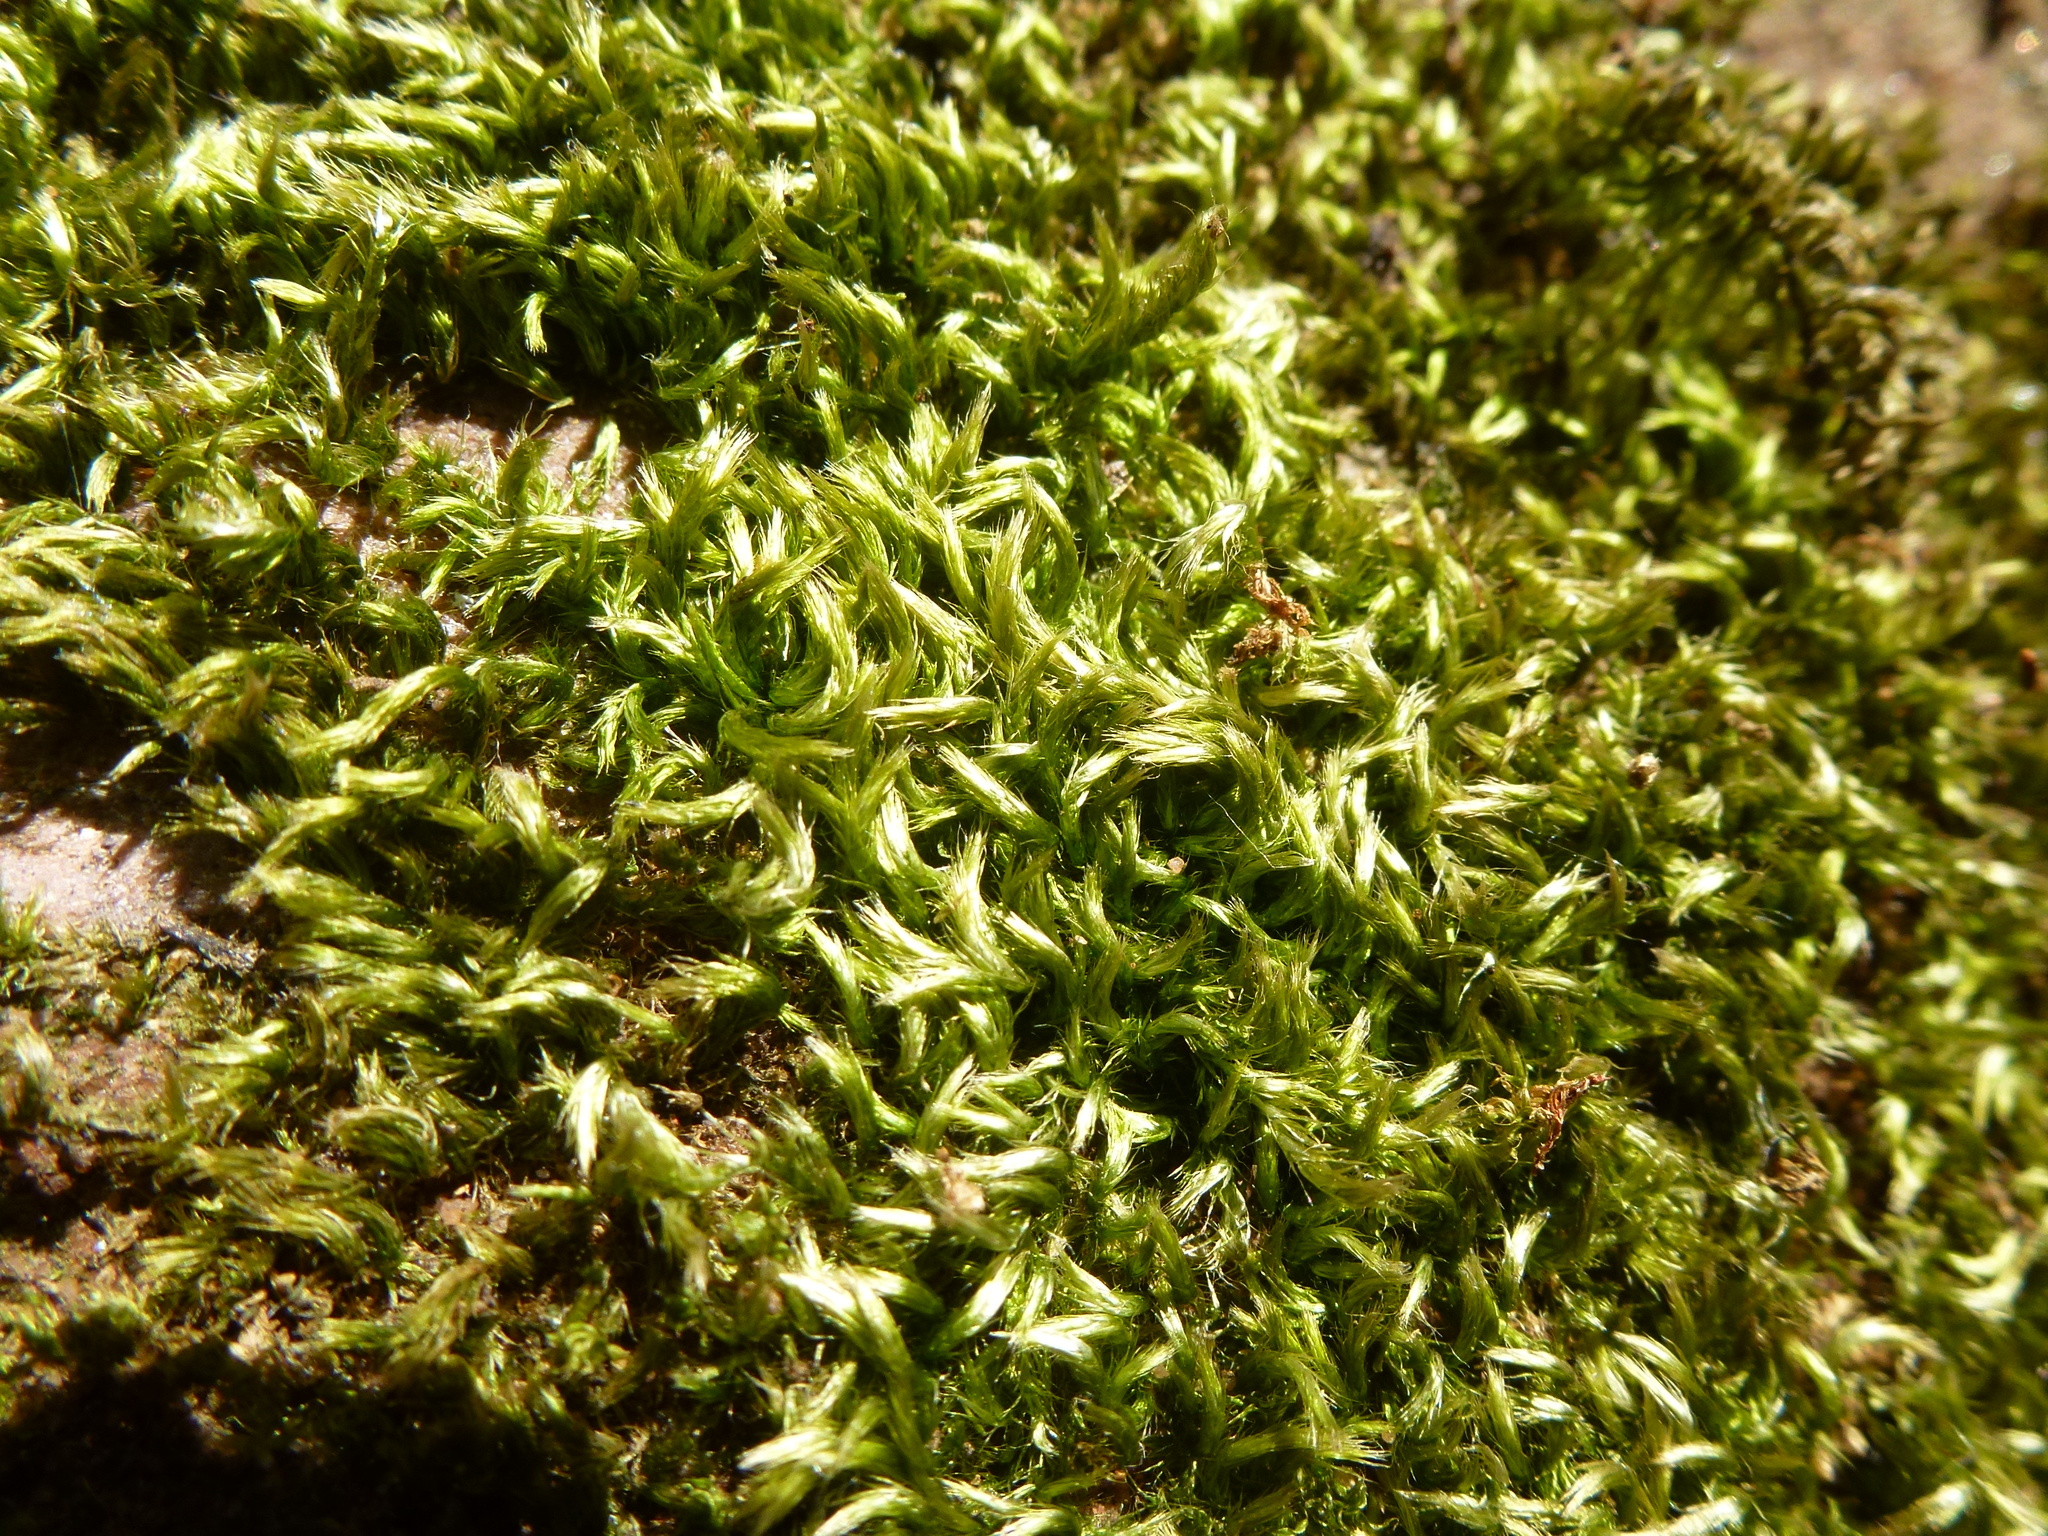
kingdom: Plantae
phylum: Bryophyta
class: Bryopsida
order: Hypnales
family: Brachytheciaceae
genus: Homalothecium
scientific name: Homalothecium sericeum
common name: Silky wall feather-moss
